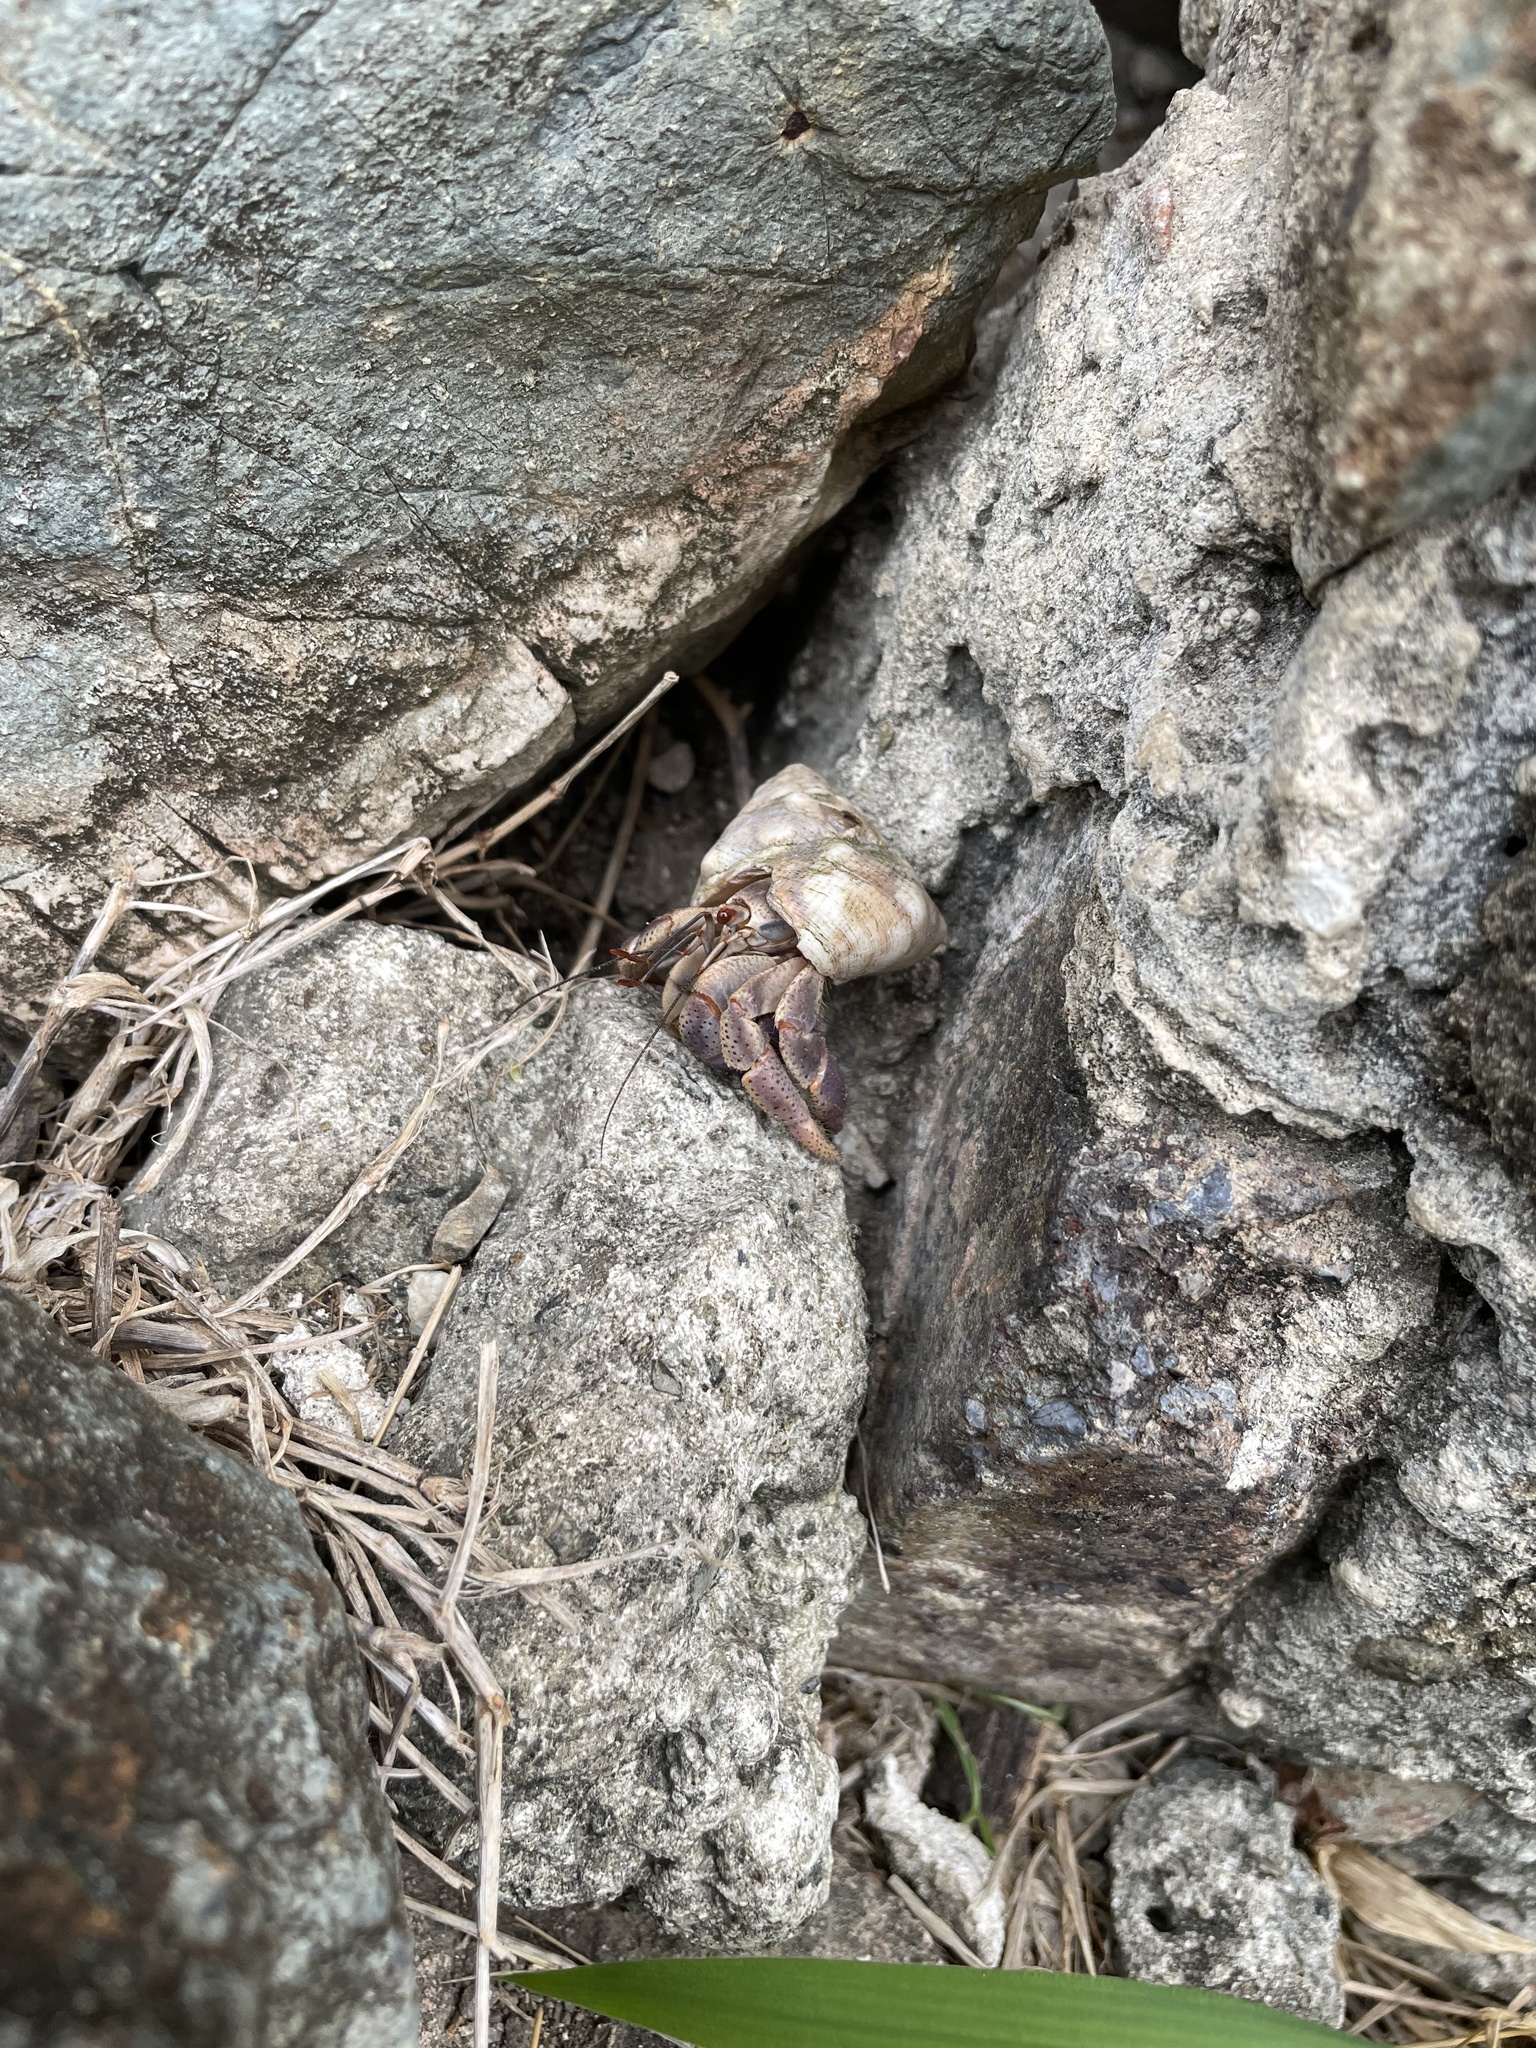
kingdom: Animalia
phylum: Arthropoda
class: Malacostraca
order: Decapoda
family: Coenobitidae
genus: Coenobita
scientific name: Coenobita clypeatus
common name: Caribbean hermit crab
